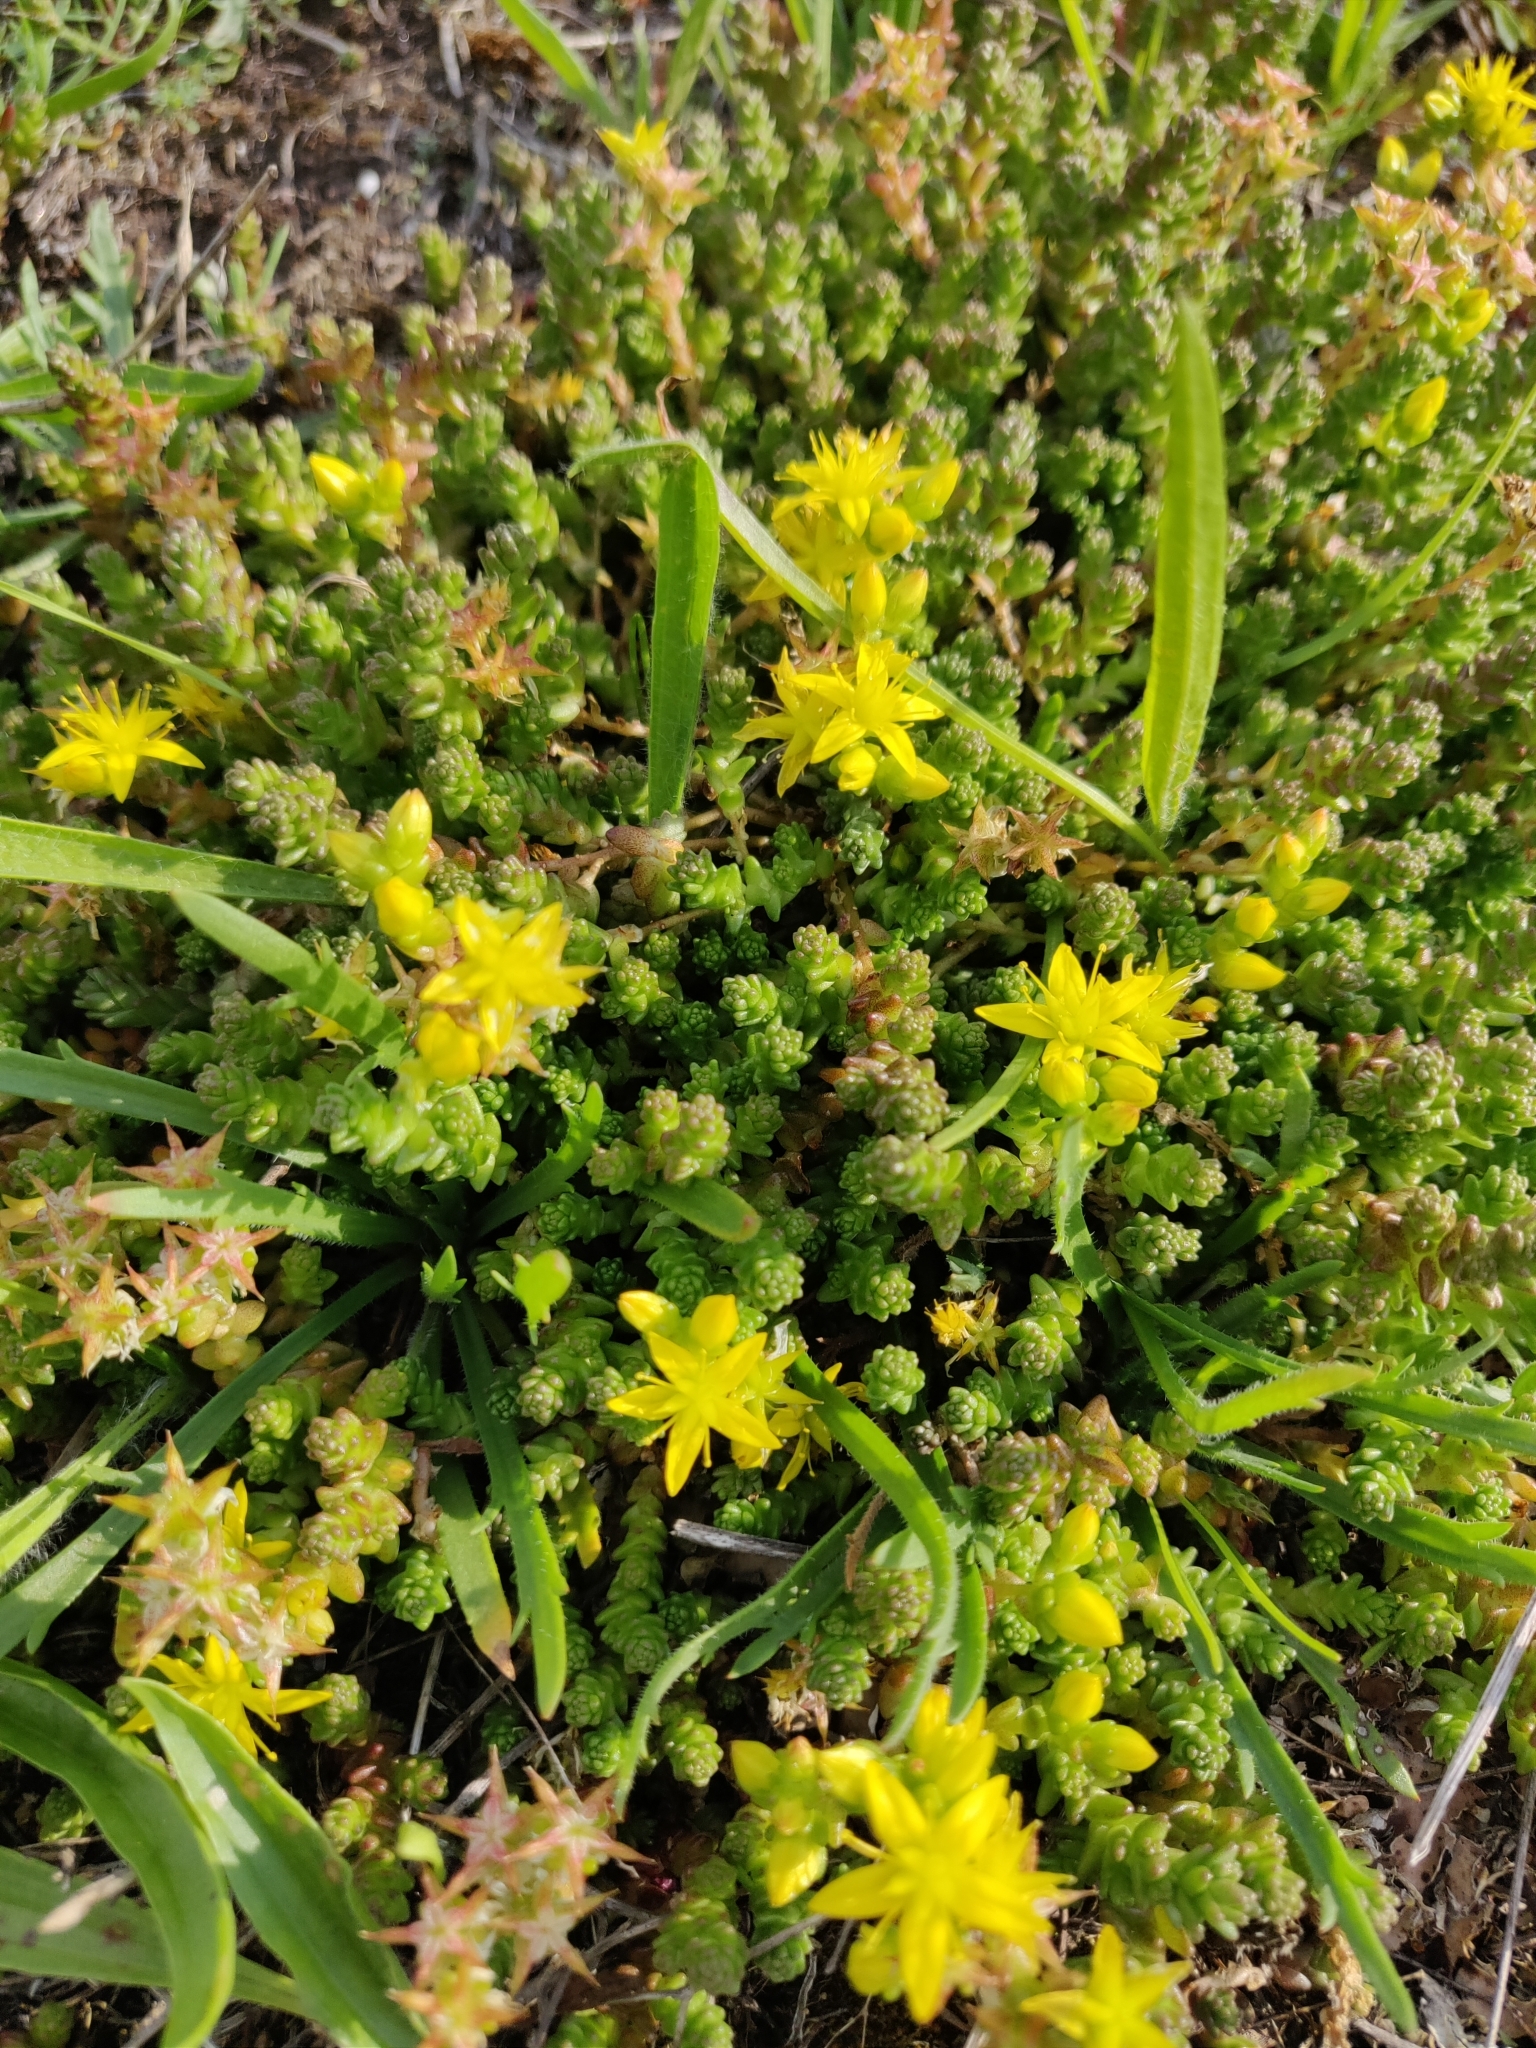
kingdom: Plantae
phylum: Tracheophyta
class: Magnoliopsida
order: Saxifragales
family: Crassulaceae
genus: Sedum
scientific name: Sedum acre
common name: Biting stonecrop
